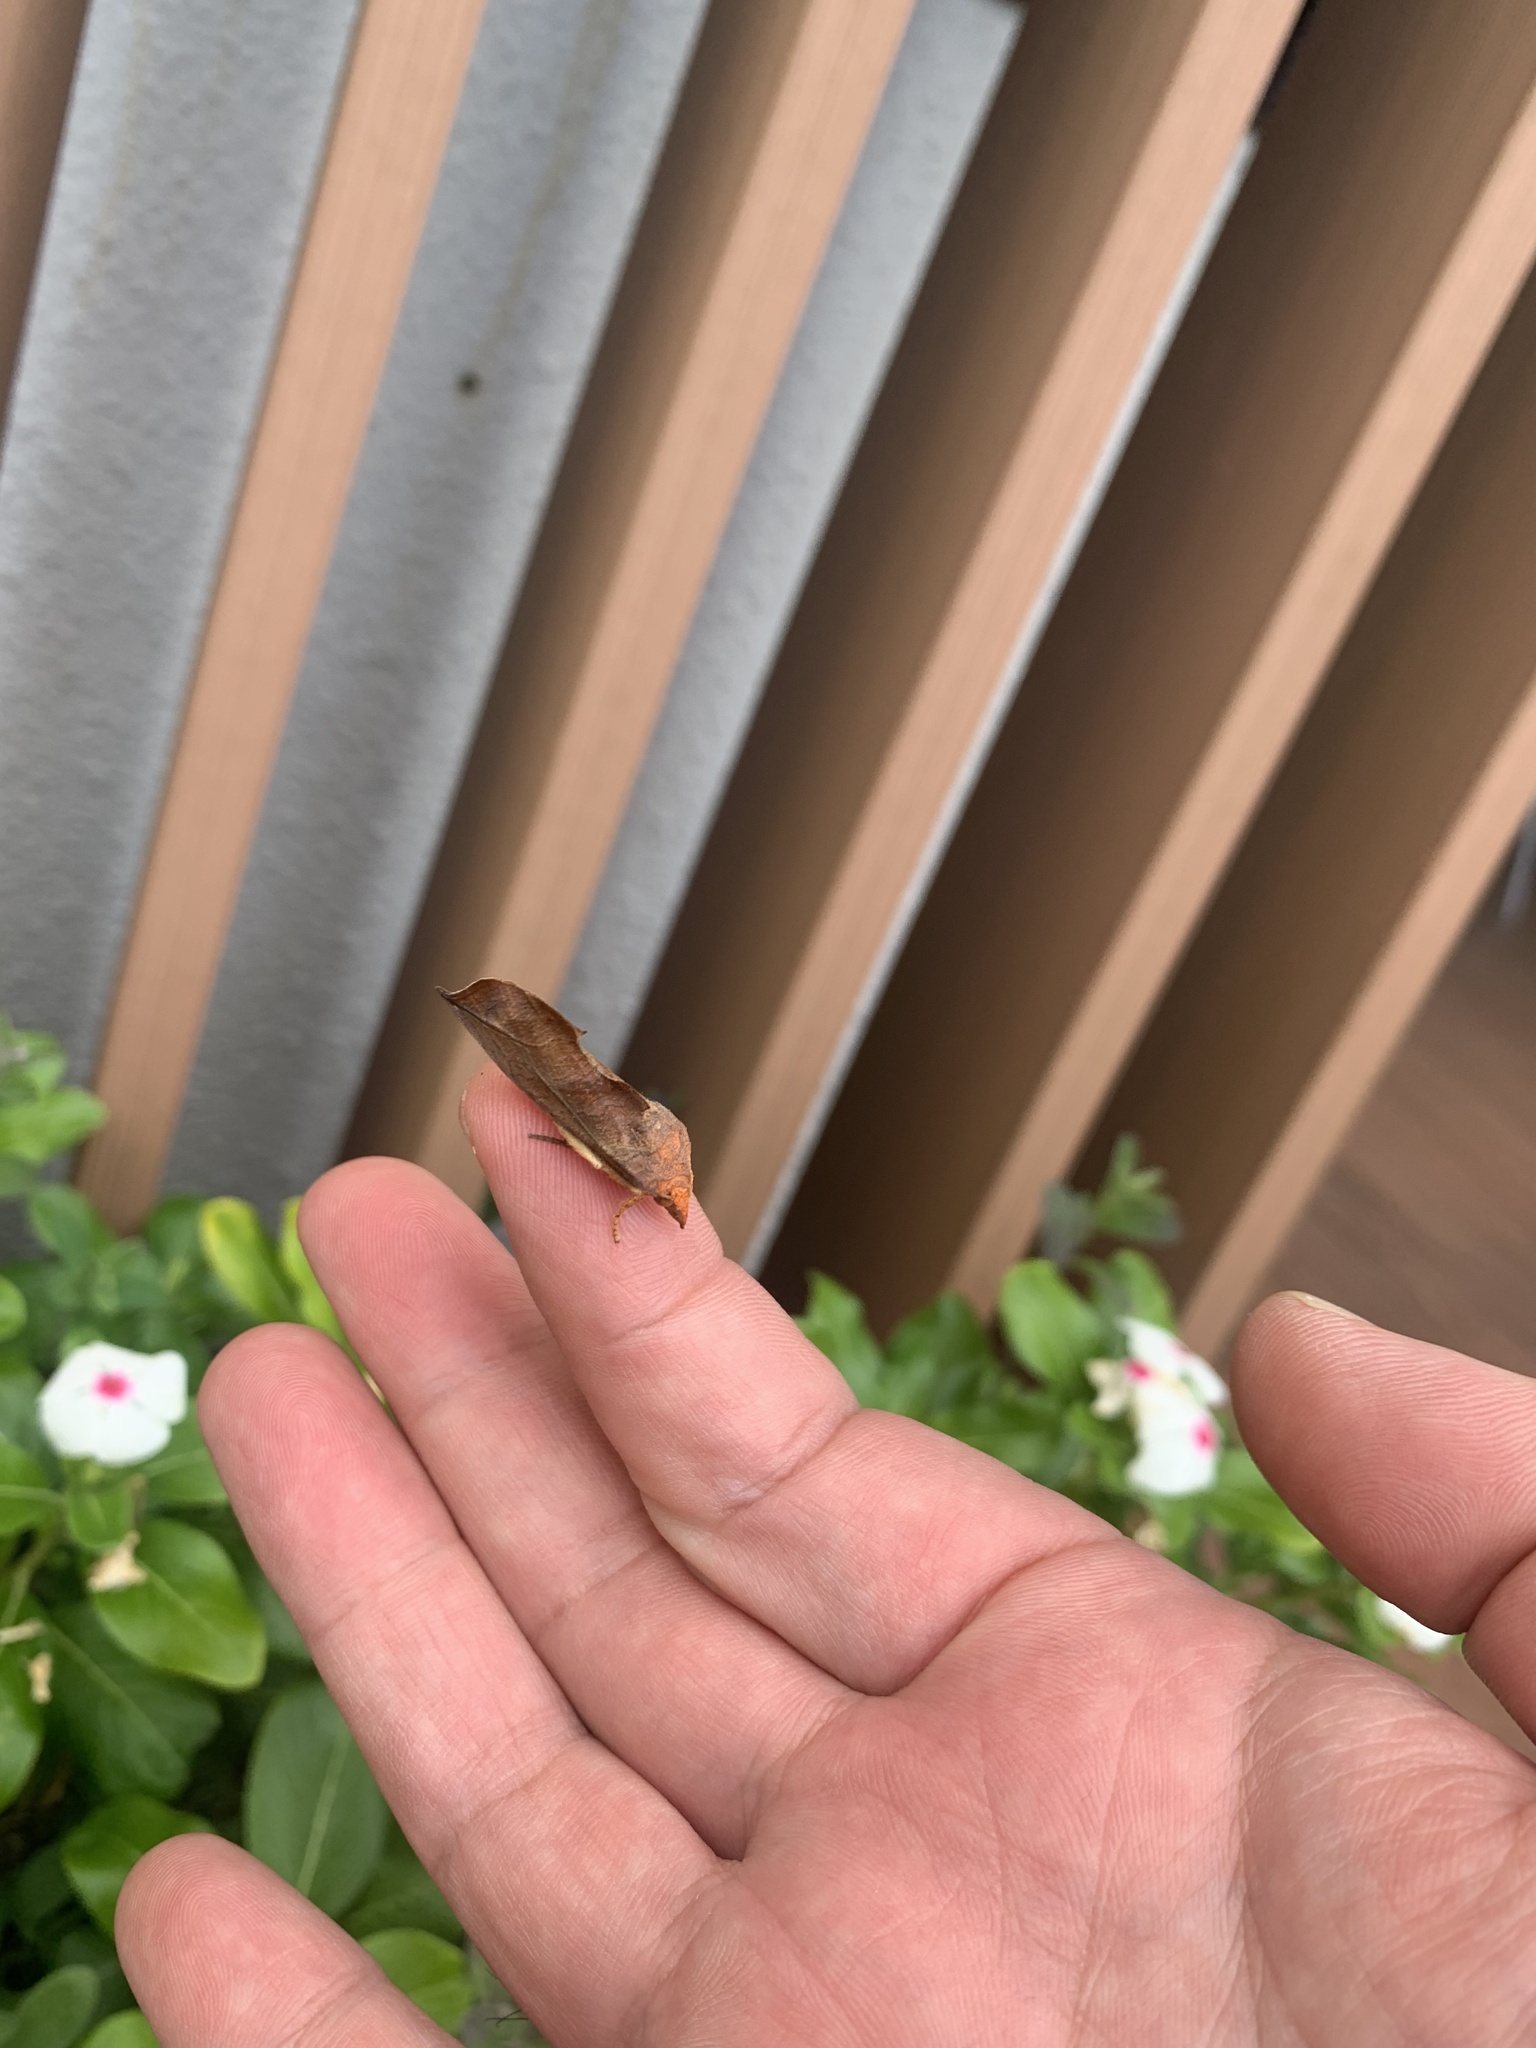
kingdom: Animalia
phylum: Arthropoda
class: Insecta
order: Lepidoptera
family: Erebidae
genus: Oraesia
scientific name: Oraesia excavata
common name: Moth
